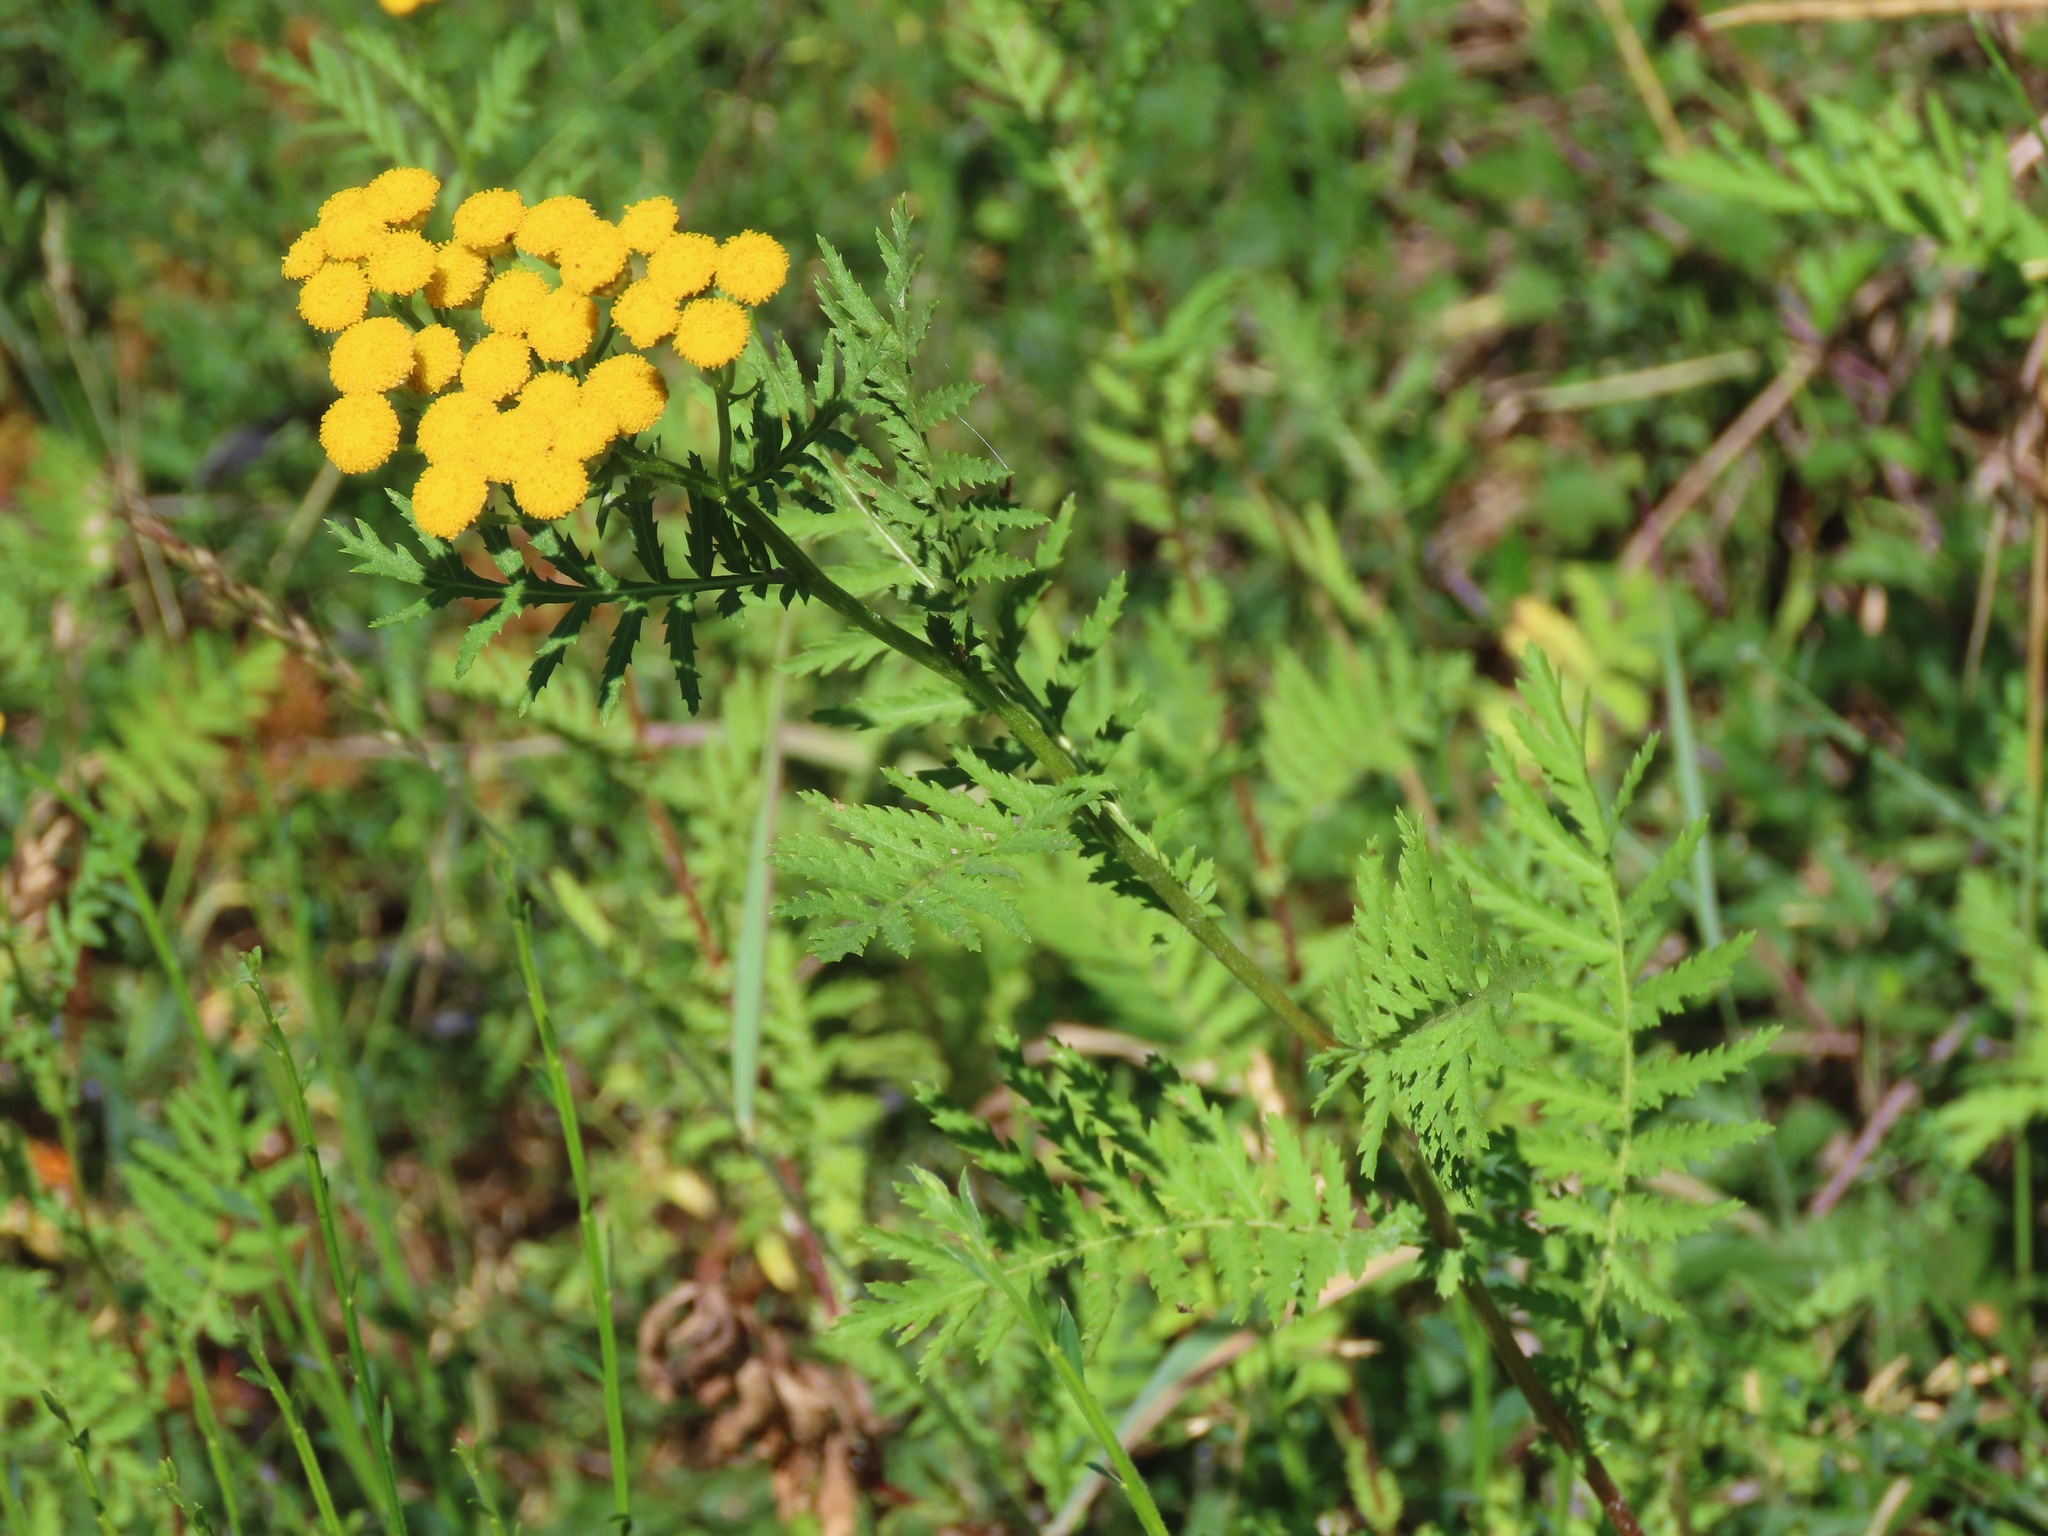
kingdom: Plantae
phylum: Tracheophyta
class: Magnoliopsida
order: Asterales
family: Asteraceae
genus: Tanacetum
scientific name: Tanacetum vulgare
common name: Common tansy
